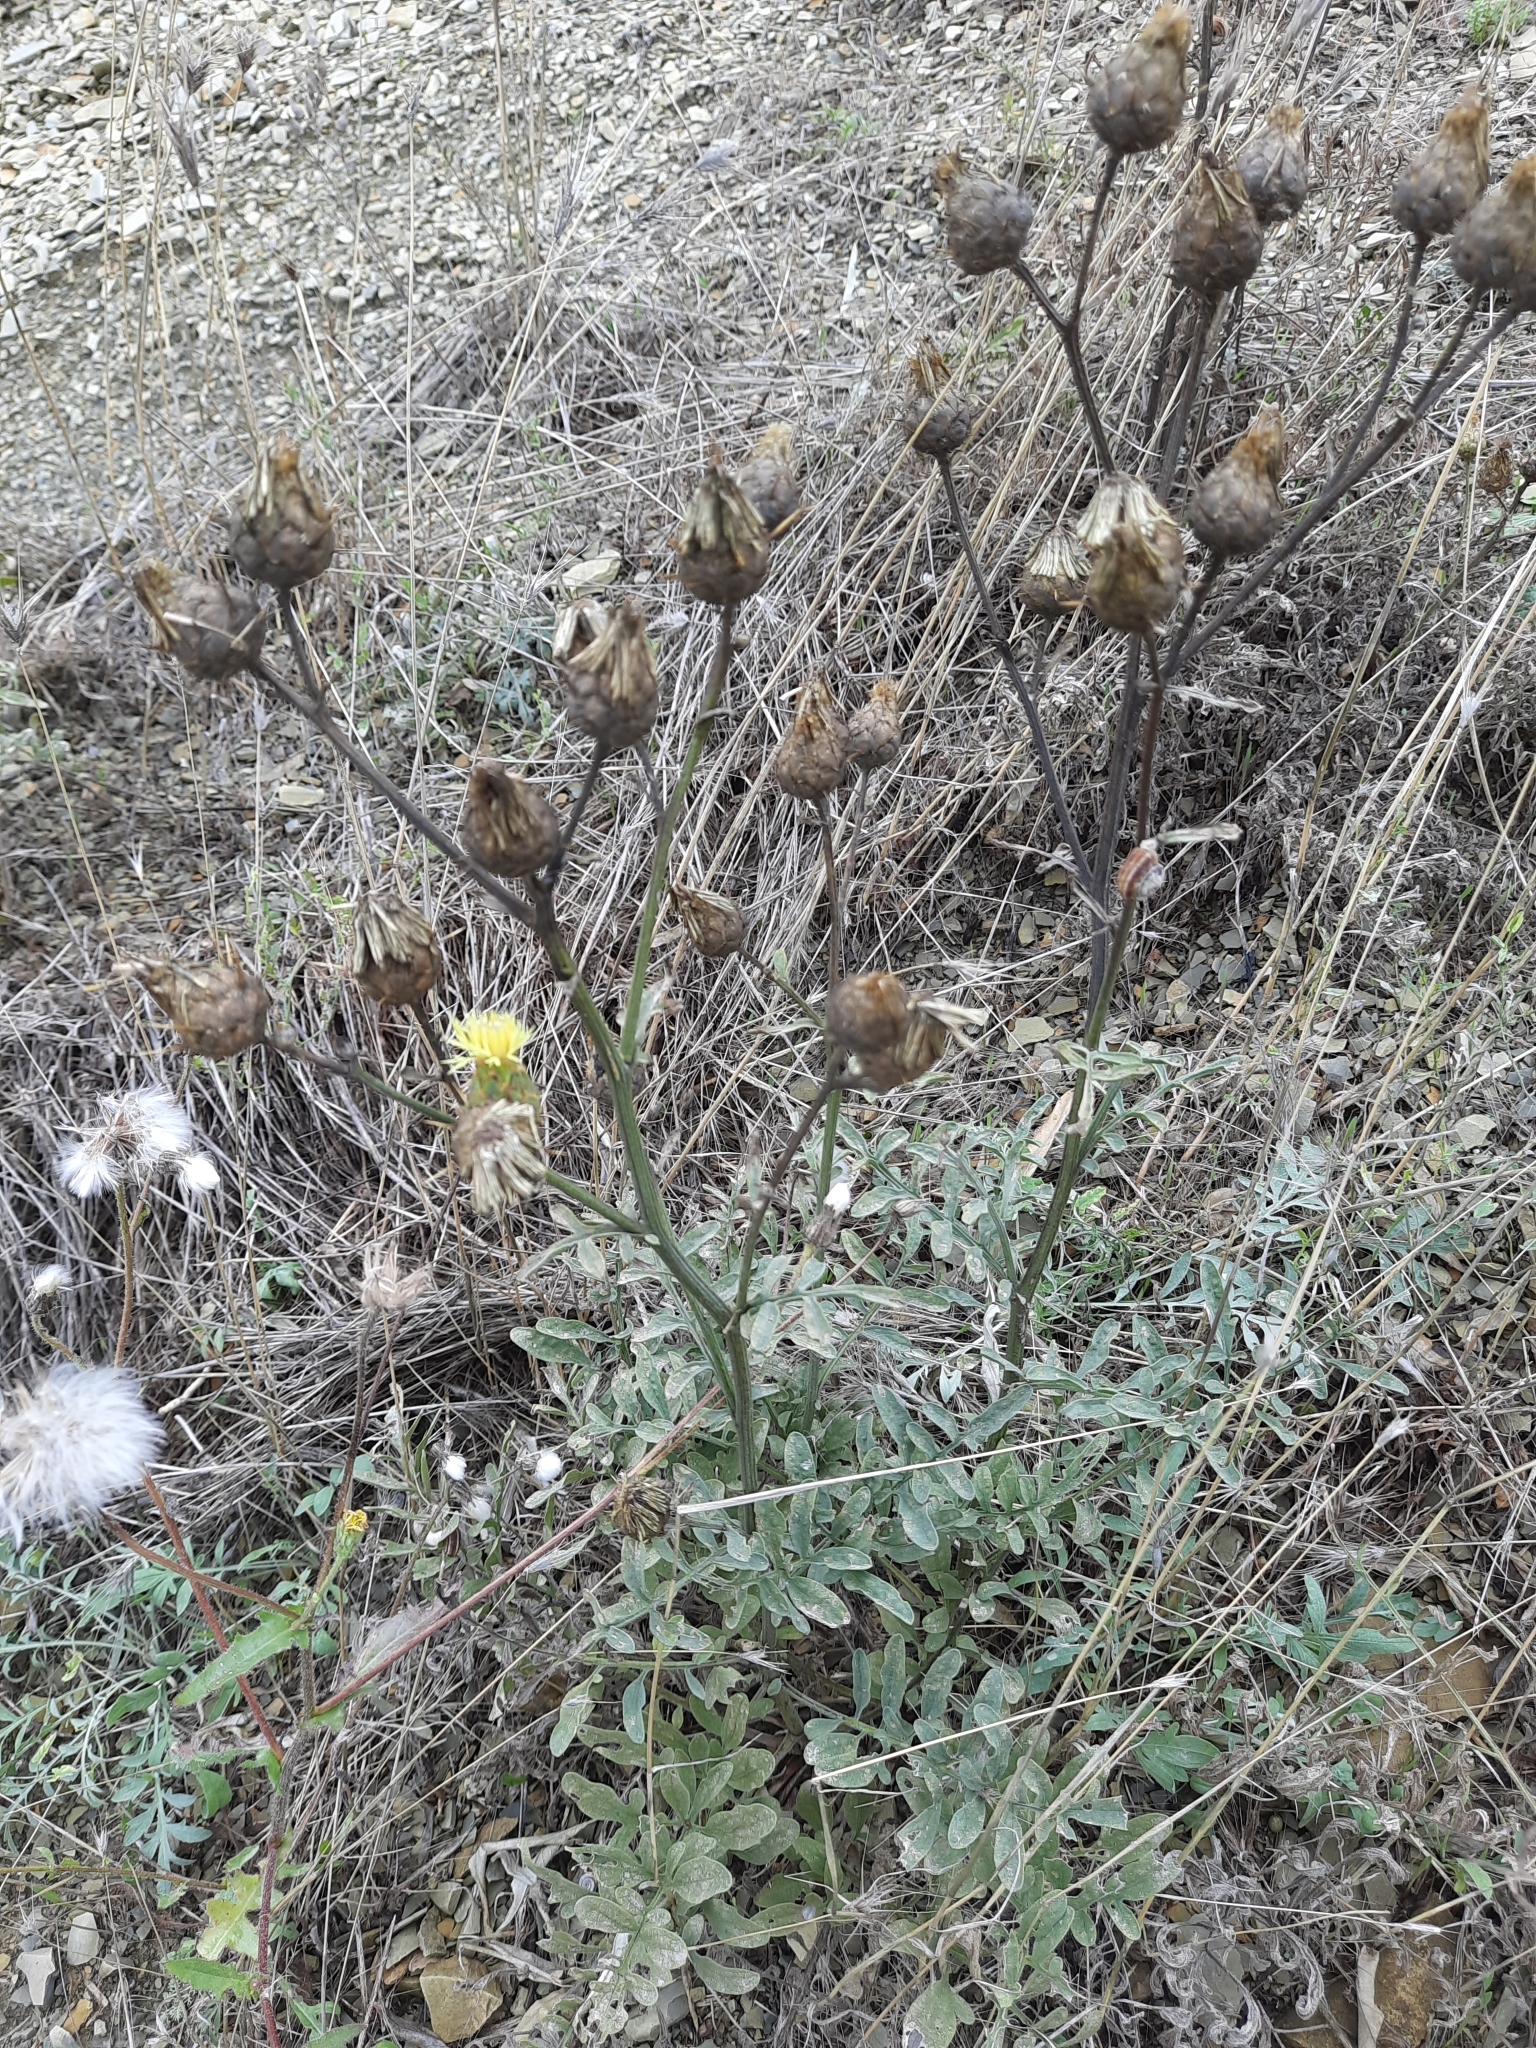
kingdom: Plantae
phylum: Tracheophyta
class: Magnoliopsida
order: Asterales
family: Asteraceae
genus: Centaurea
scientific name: Centaurea salonitana
